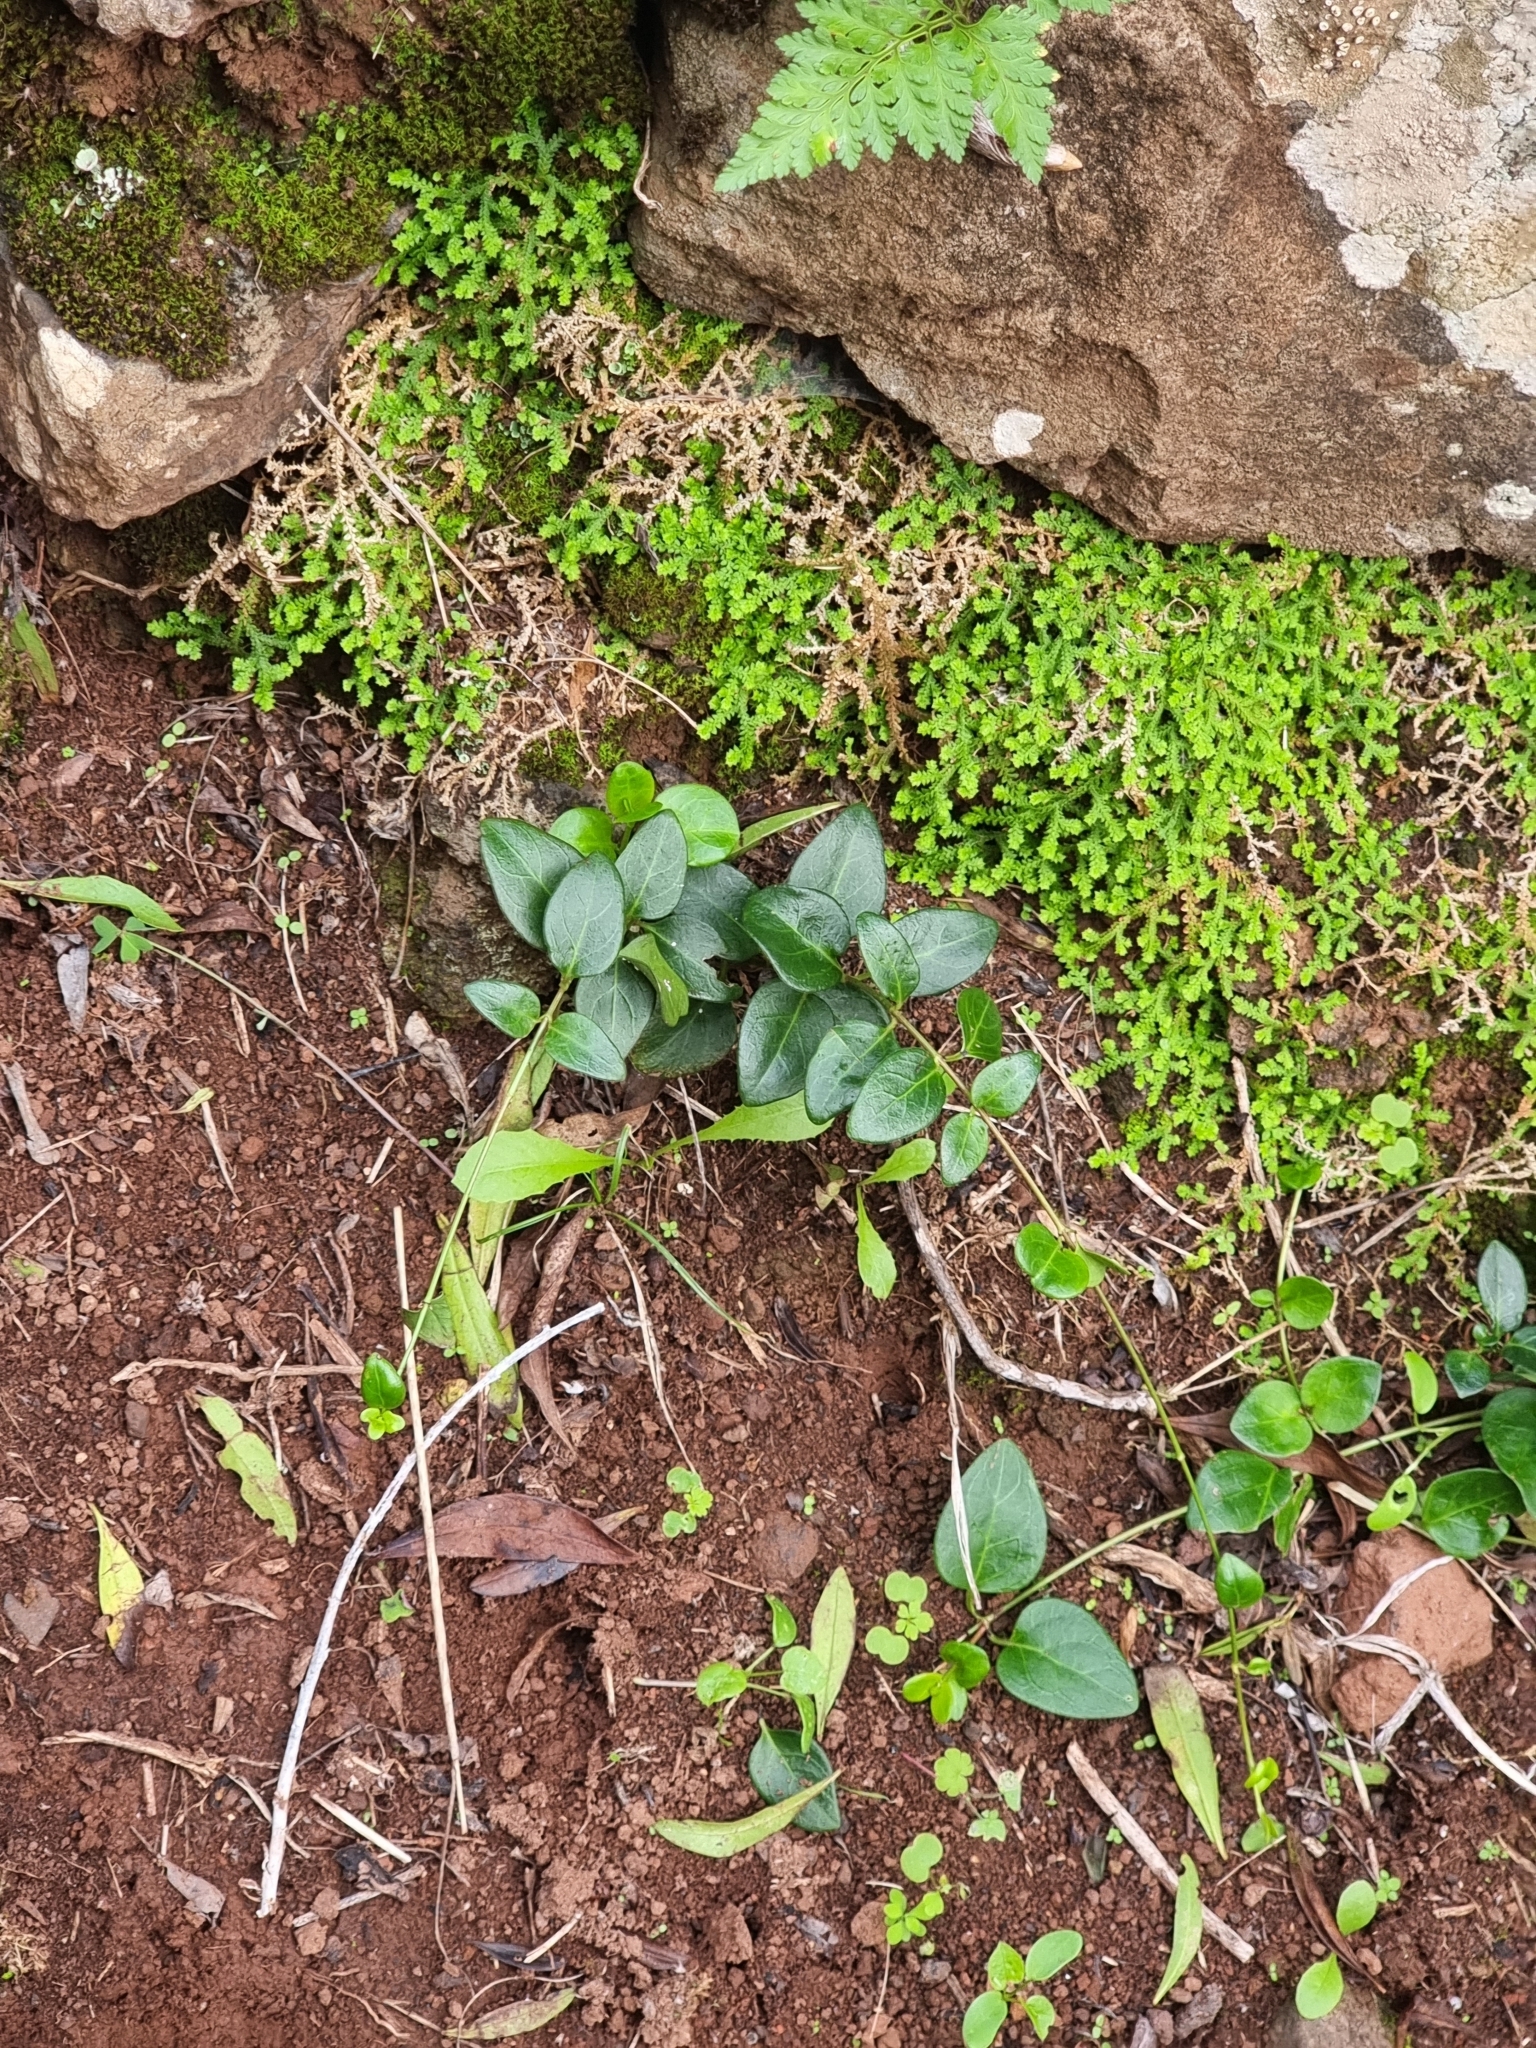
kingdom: Plantae
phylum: Tracheophyta
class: Magnoliopsida
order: Gentianales
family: Apocynaceae
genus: Vinca
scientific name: Vinca major
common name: Greater periwinkle
